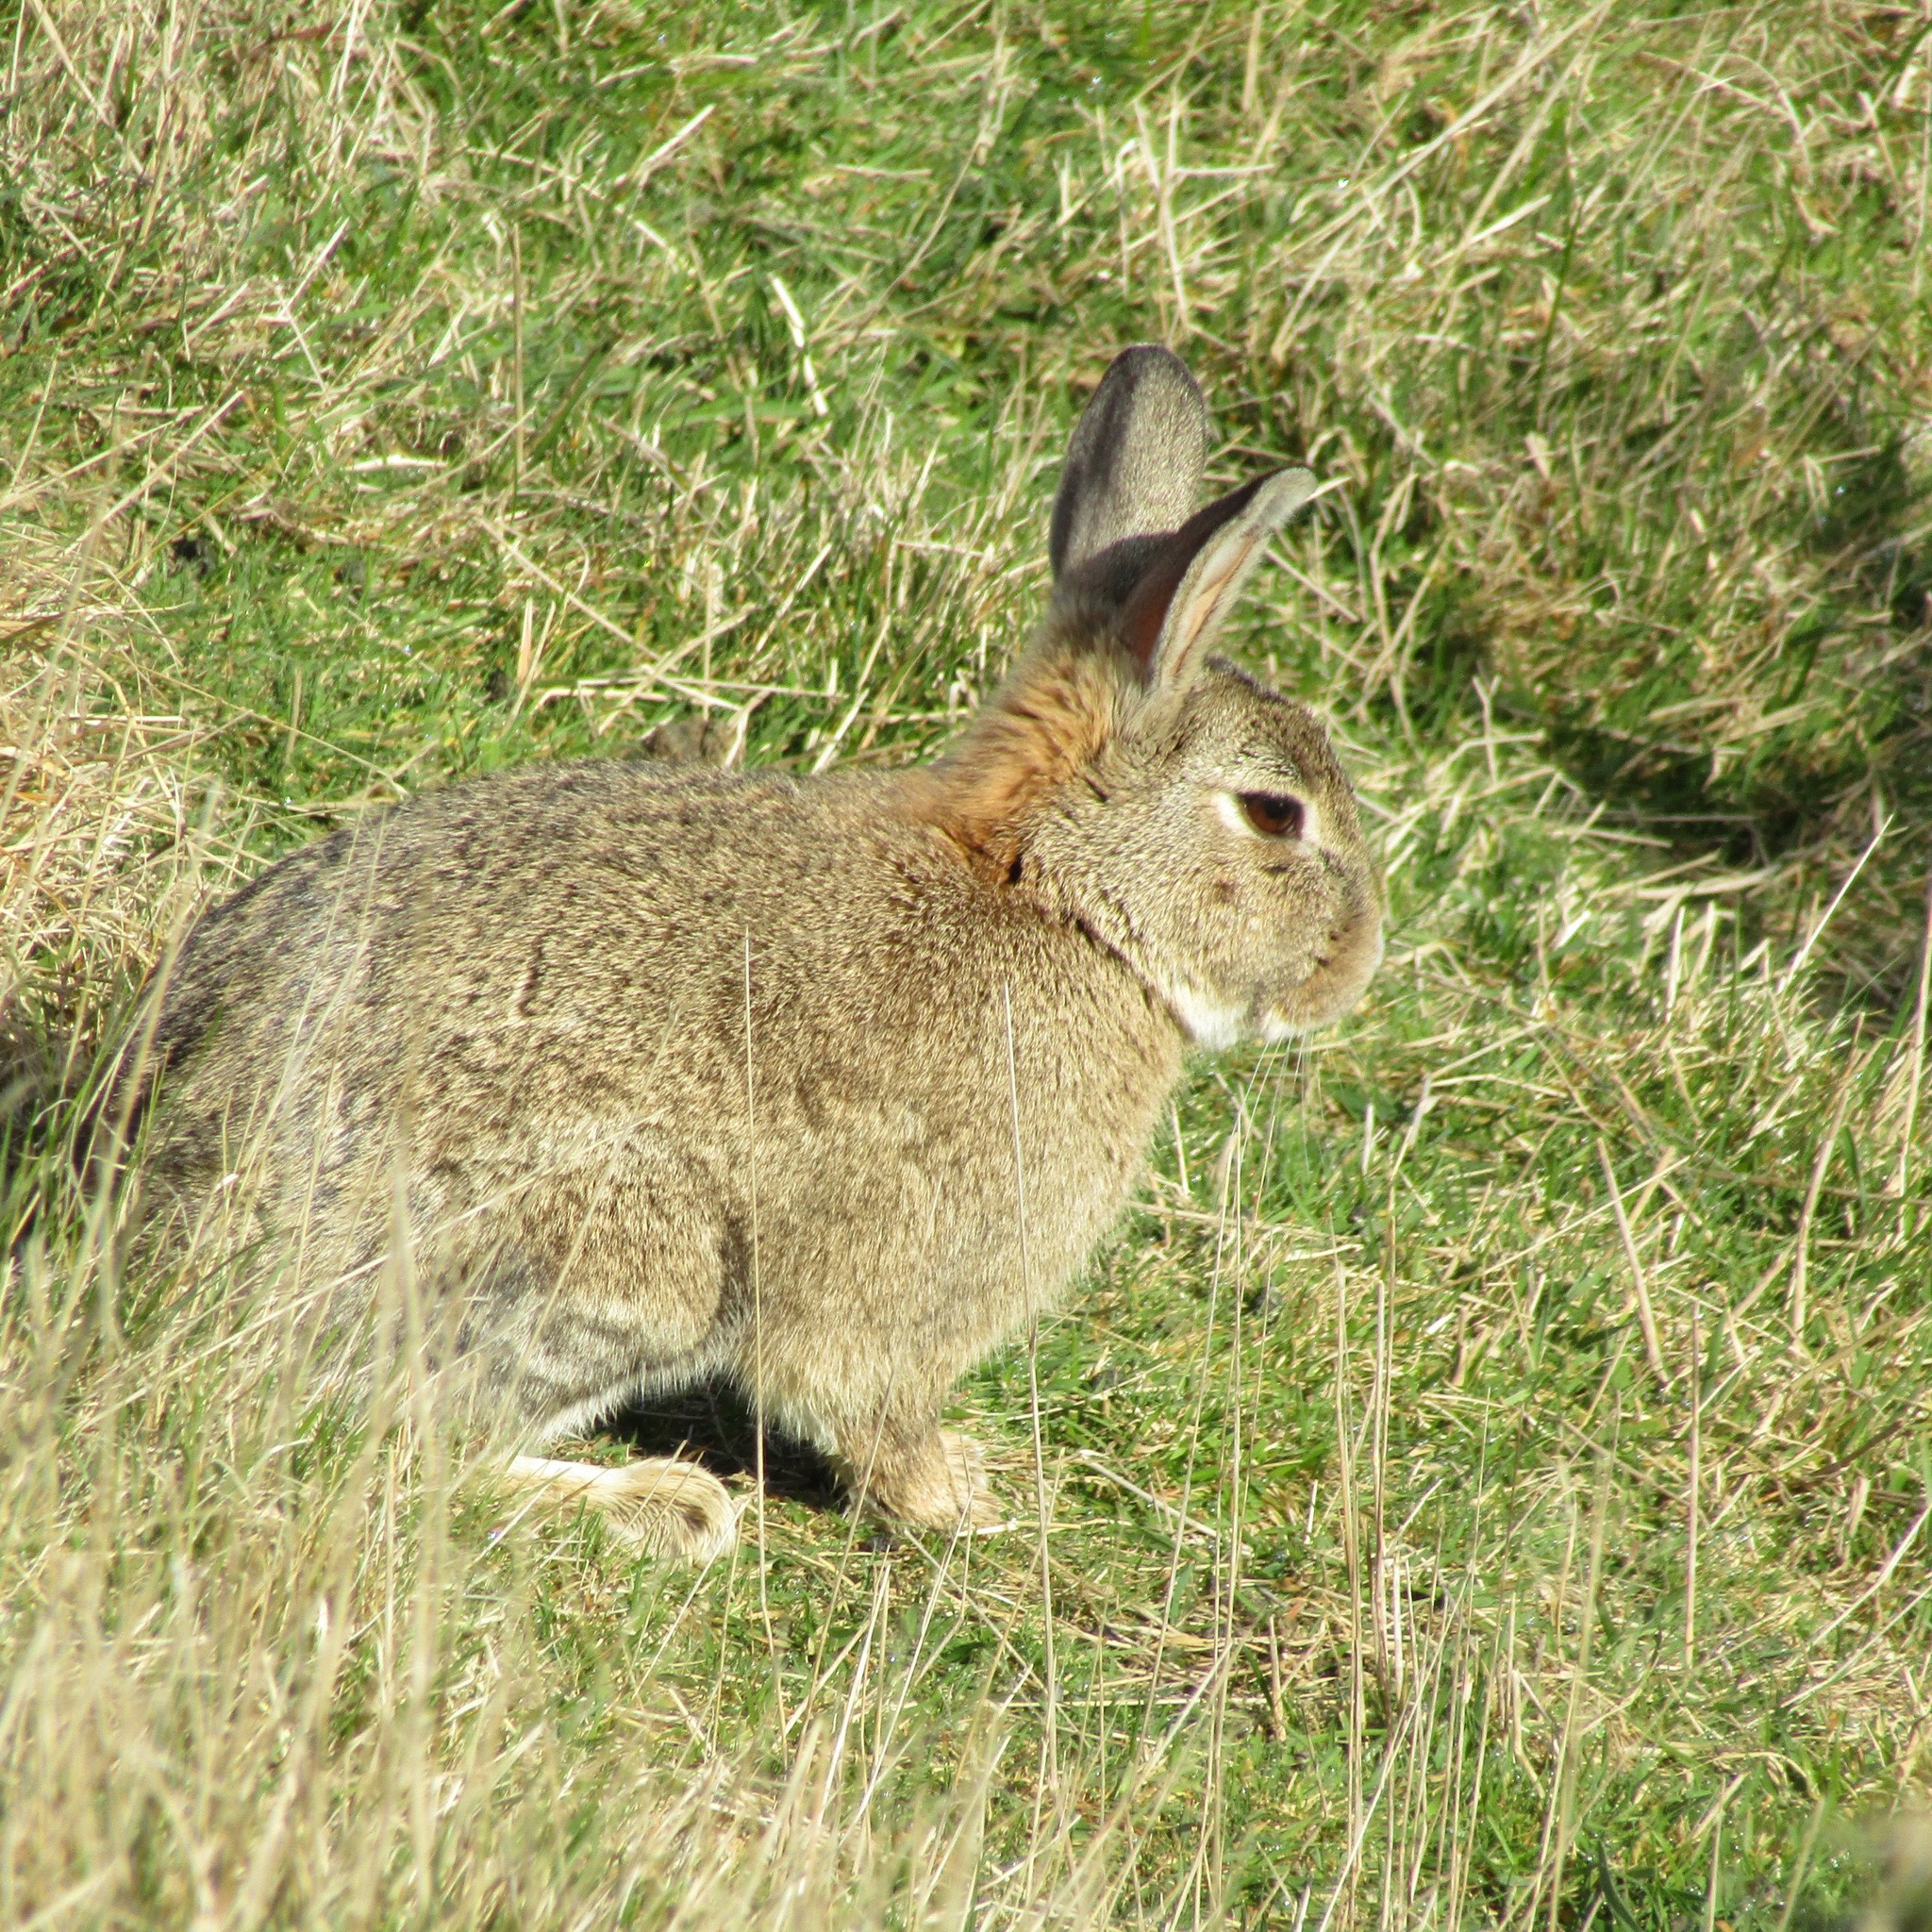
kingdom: Animalia
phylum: Chordata
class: Mammalia
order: Lagomorpha
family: Leporidae
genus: Oryctolagus
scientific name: Oryctolagus cuniculus
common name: European rabbit
